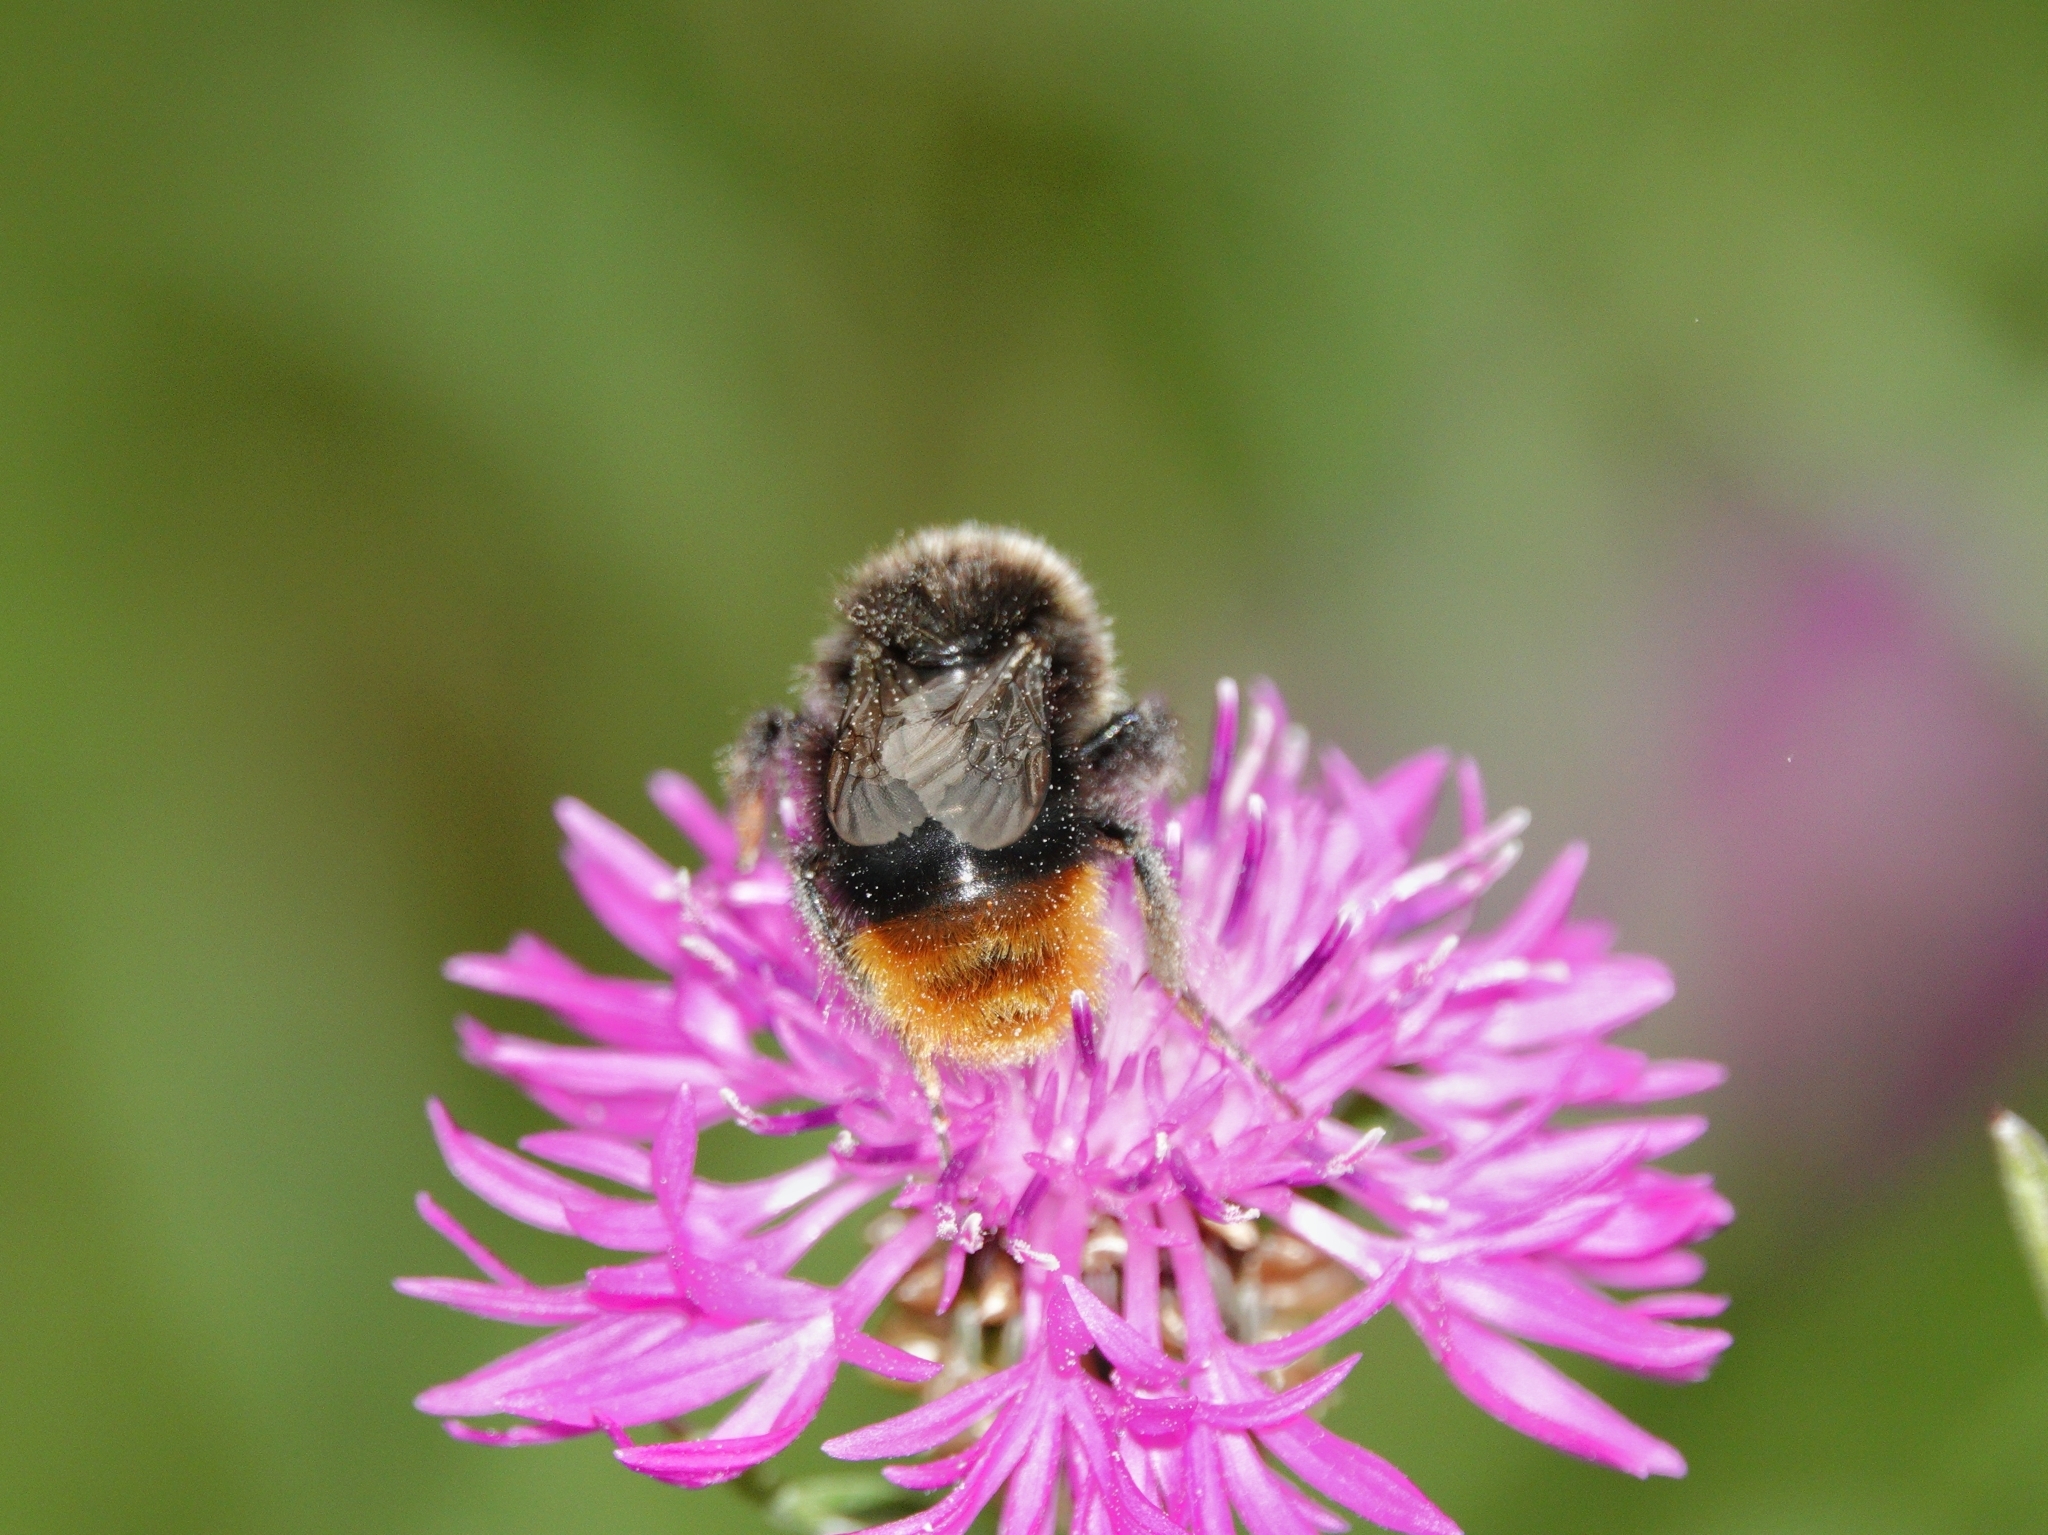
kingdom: Animalia
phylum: Arthropoda
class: Insecta
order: Hymenoptera
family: Apidae
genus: Bombus
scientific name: Bombus lapidarius
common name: Large red-tailed humble-bee
